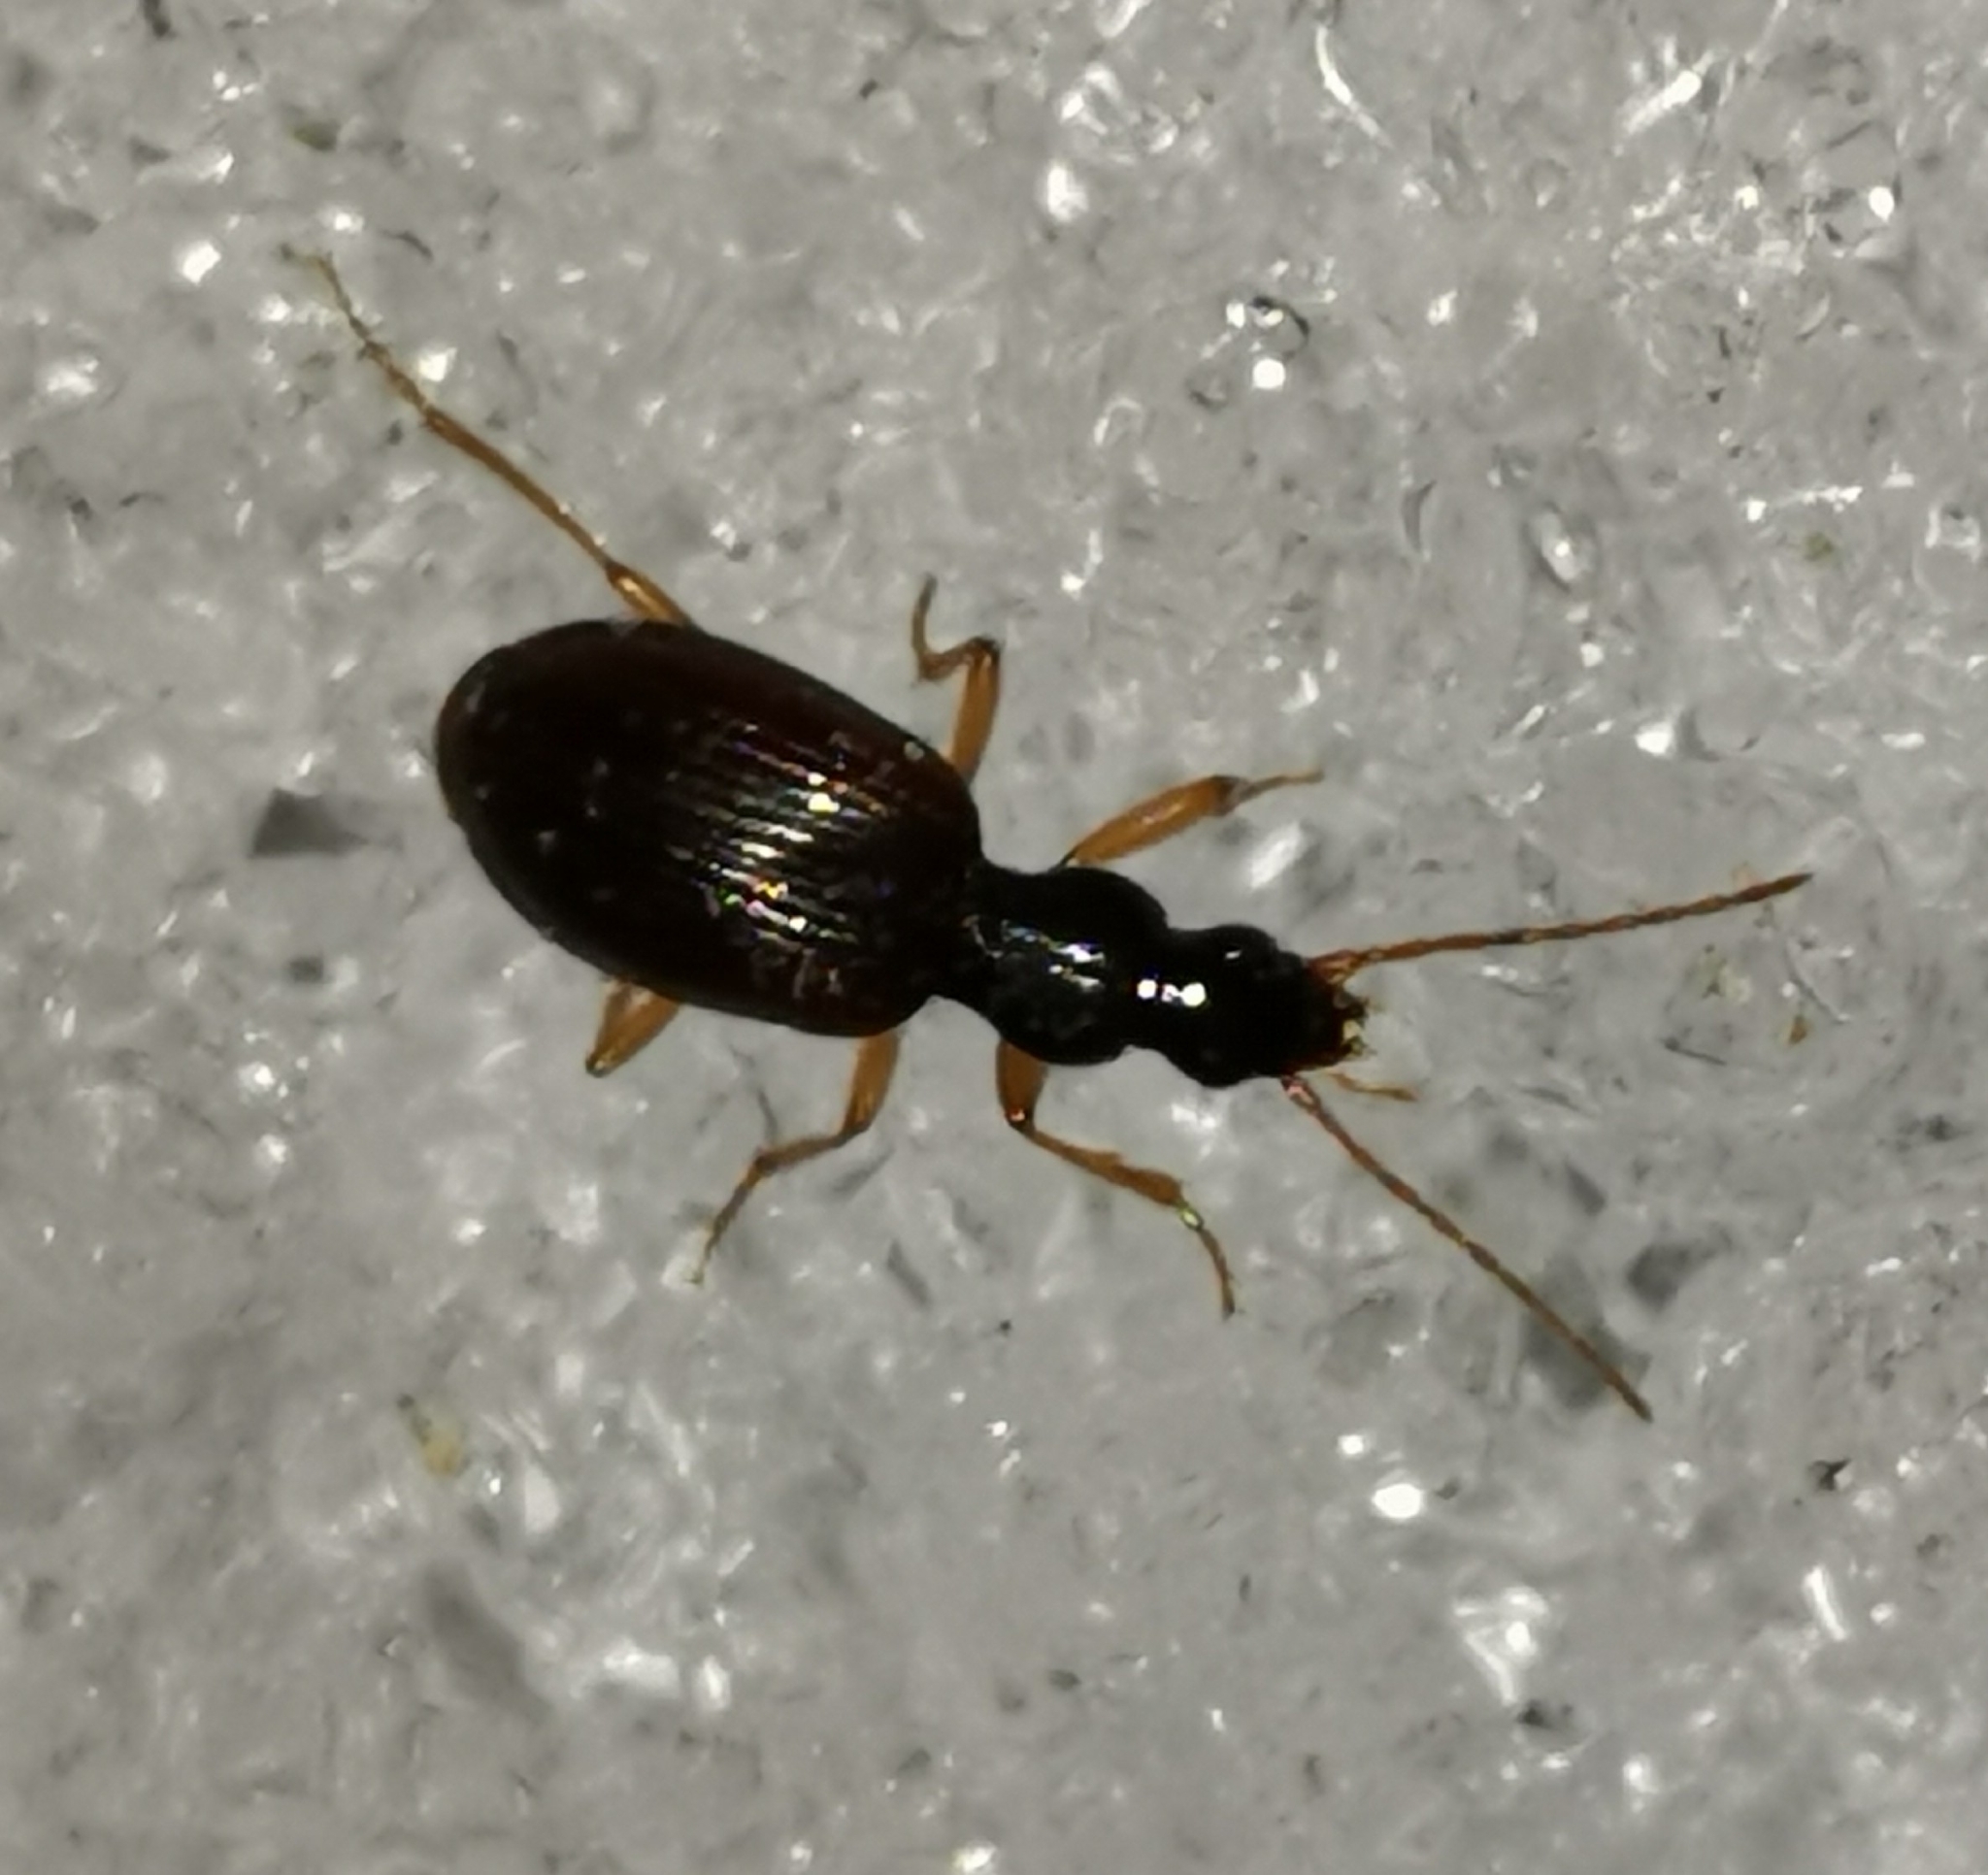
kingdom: Animalia
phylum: Arthropoda
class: Insecta
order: Coleoptera
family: Carabidae
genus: Oxypselaphus
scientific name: Oxypselaphus obscurus
